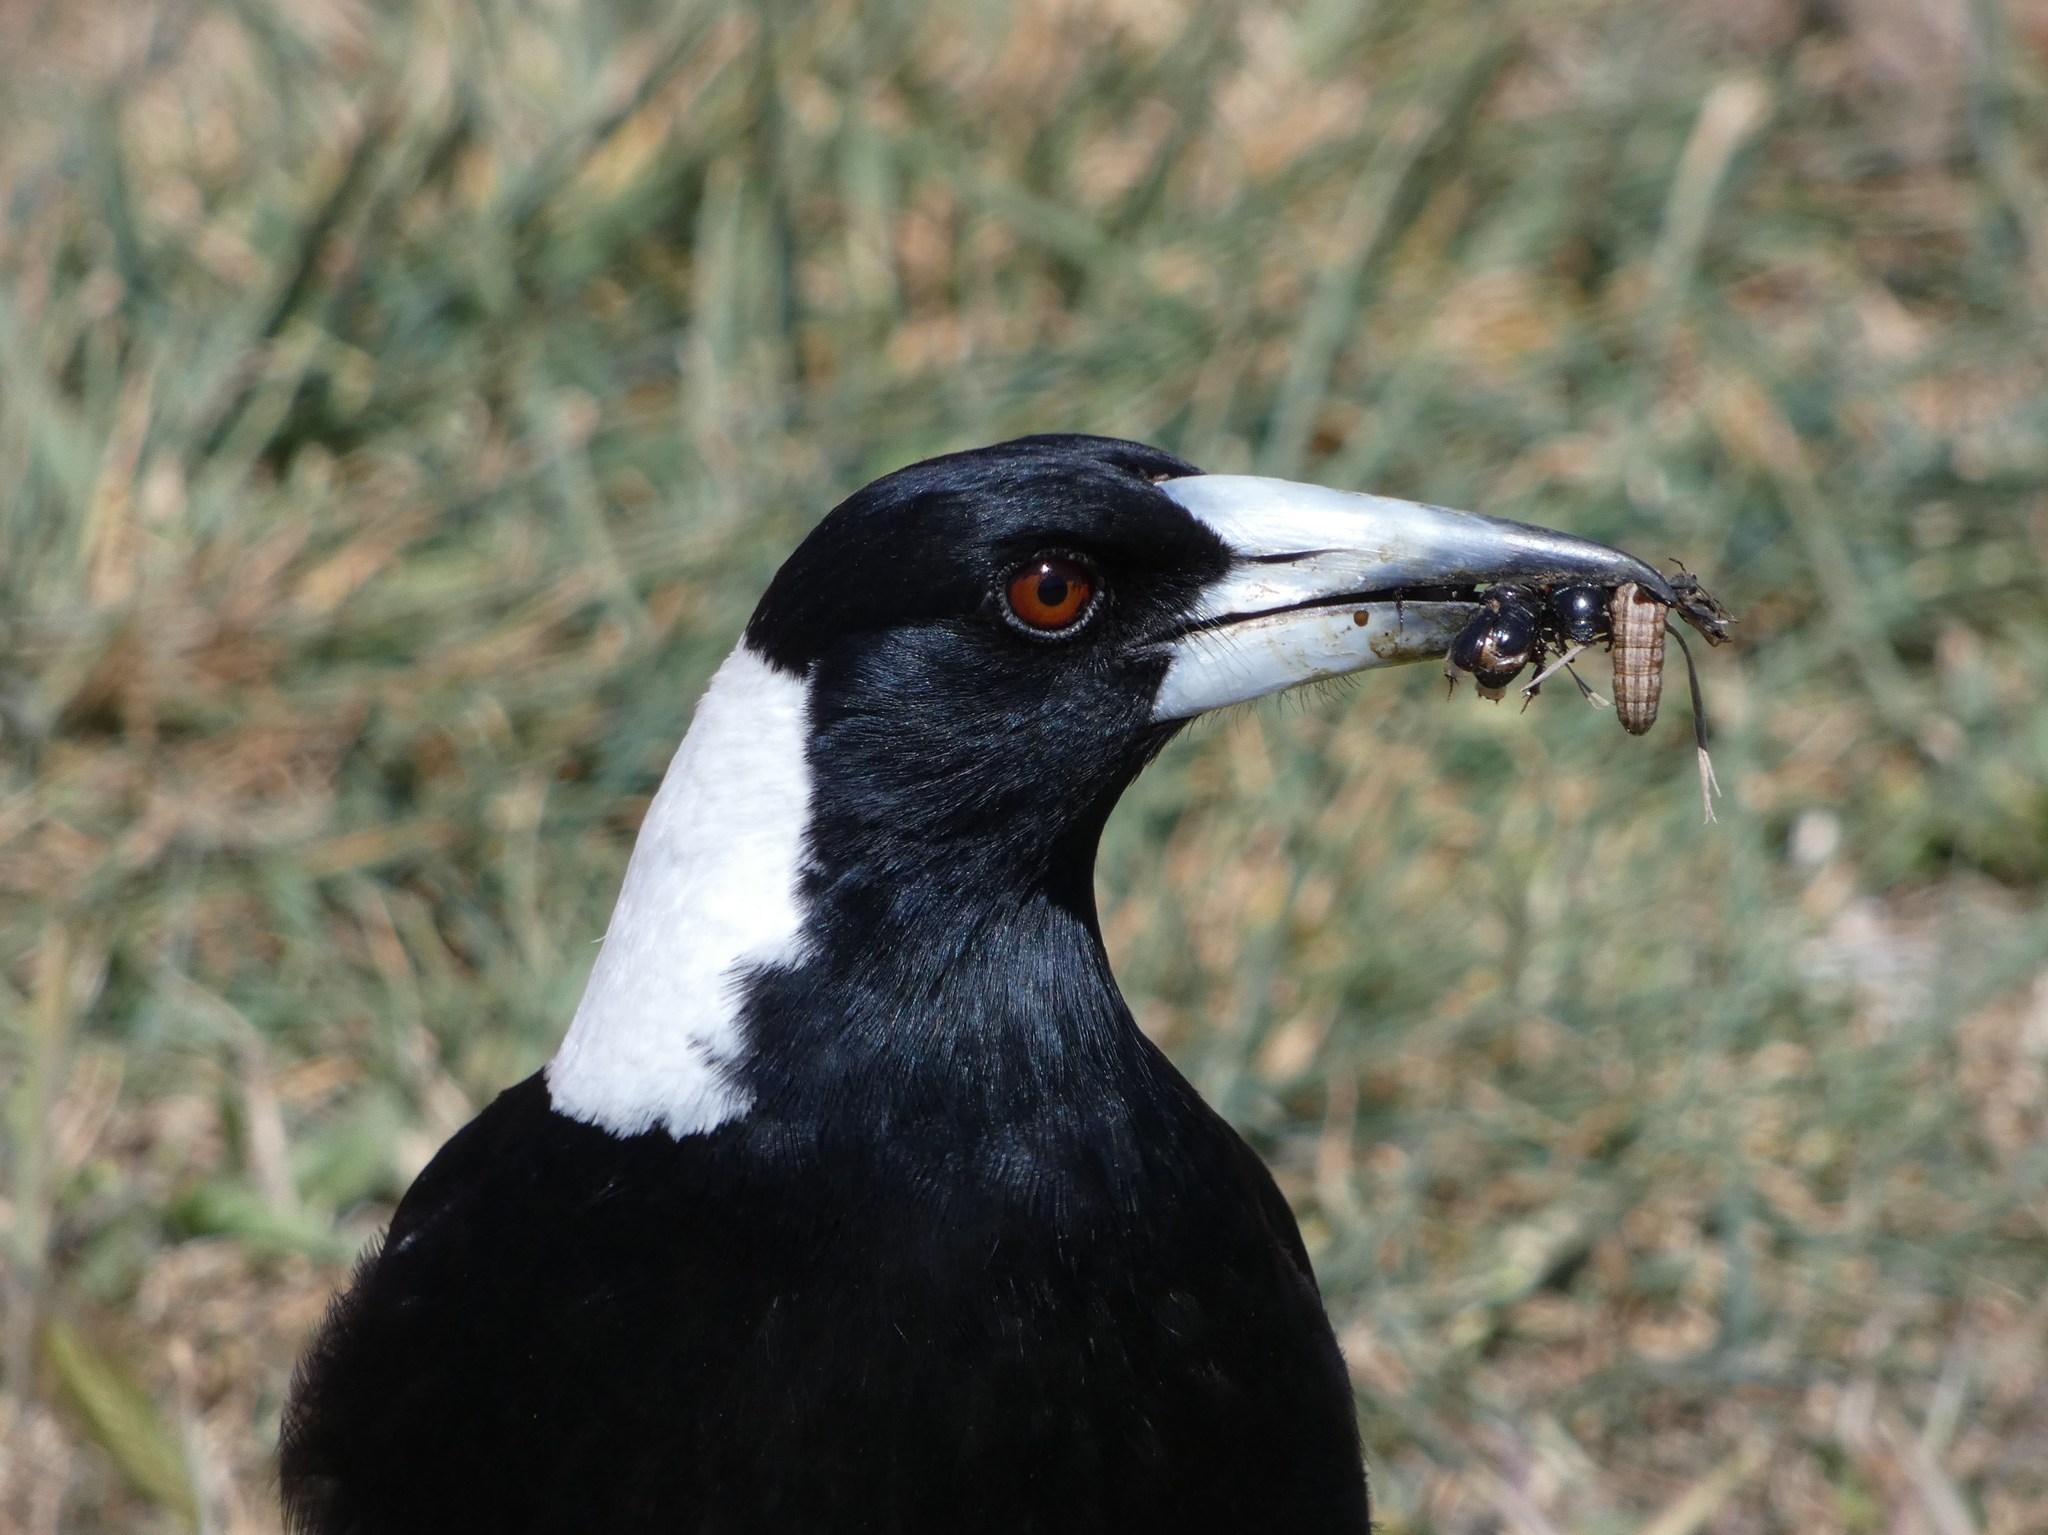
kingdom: Animalia
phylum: Chordata
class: Aves
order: Passeriformes
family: Cracticidae
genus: Gymnorhina
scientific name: Gymnorhina tibicen
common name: Australian magpie
